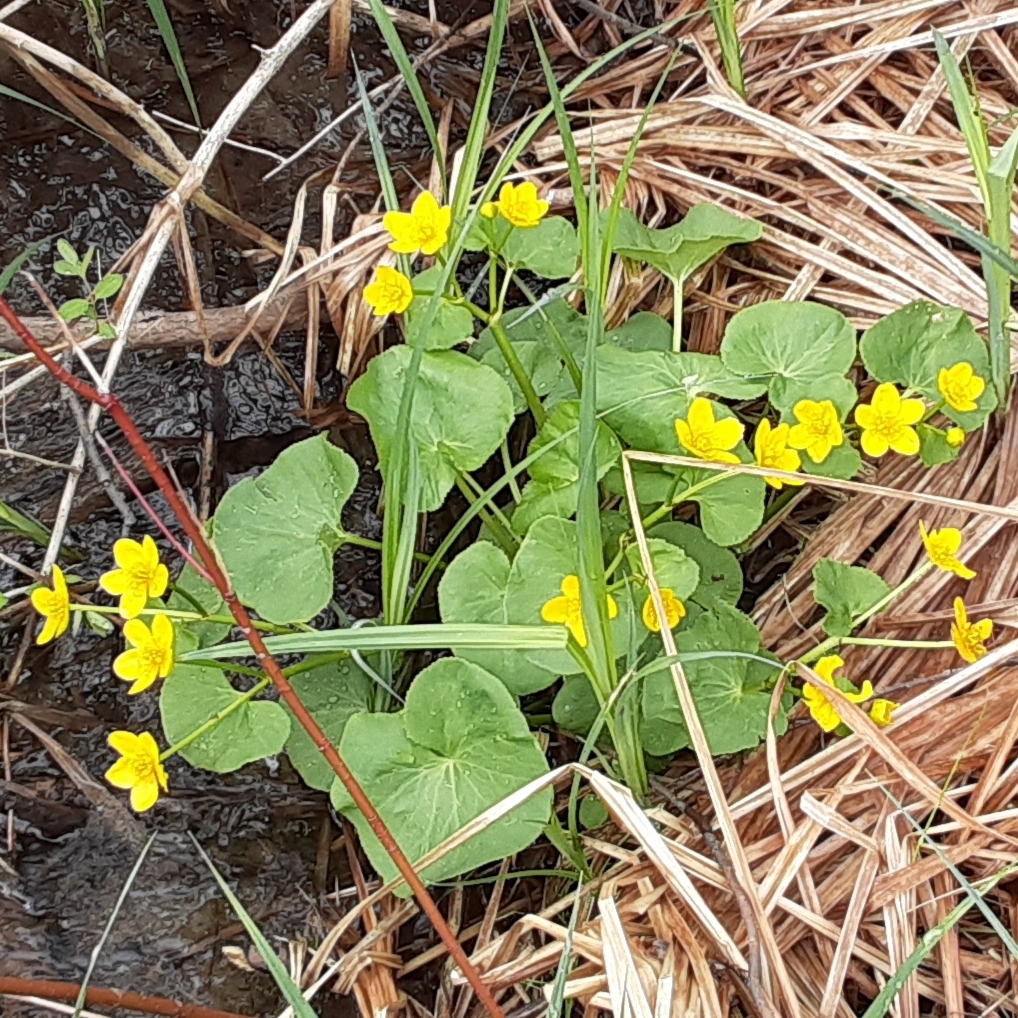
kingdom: Plantae
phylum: Tracheophyta
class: Magnoliopsida
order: Ranunculales
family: Ranunculaceae
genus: Caltha
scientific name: Caltha palustris
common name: Marsh marigold
